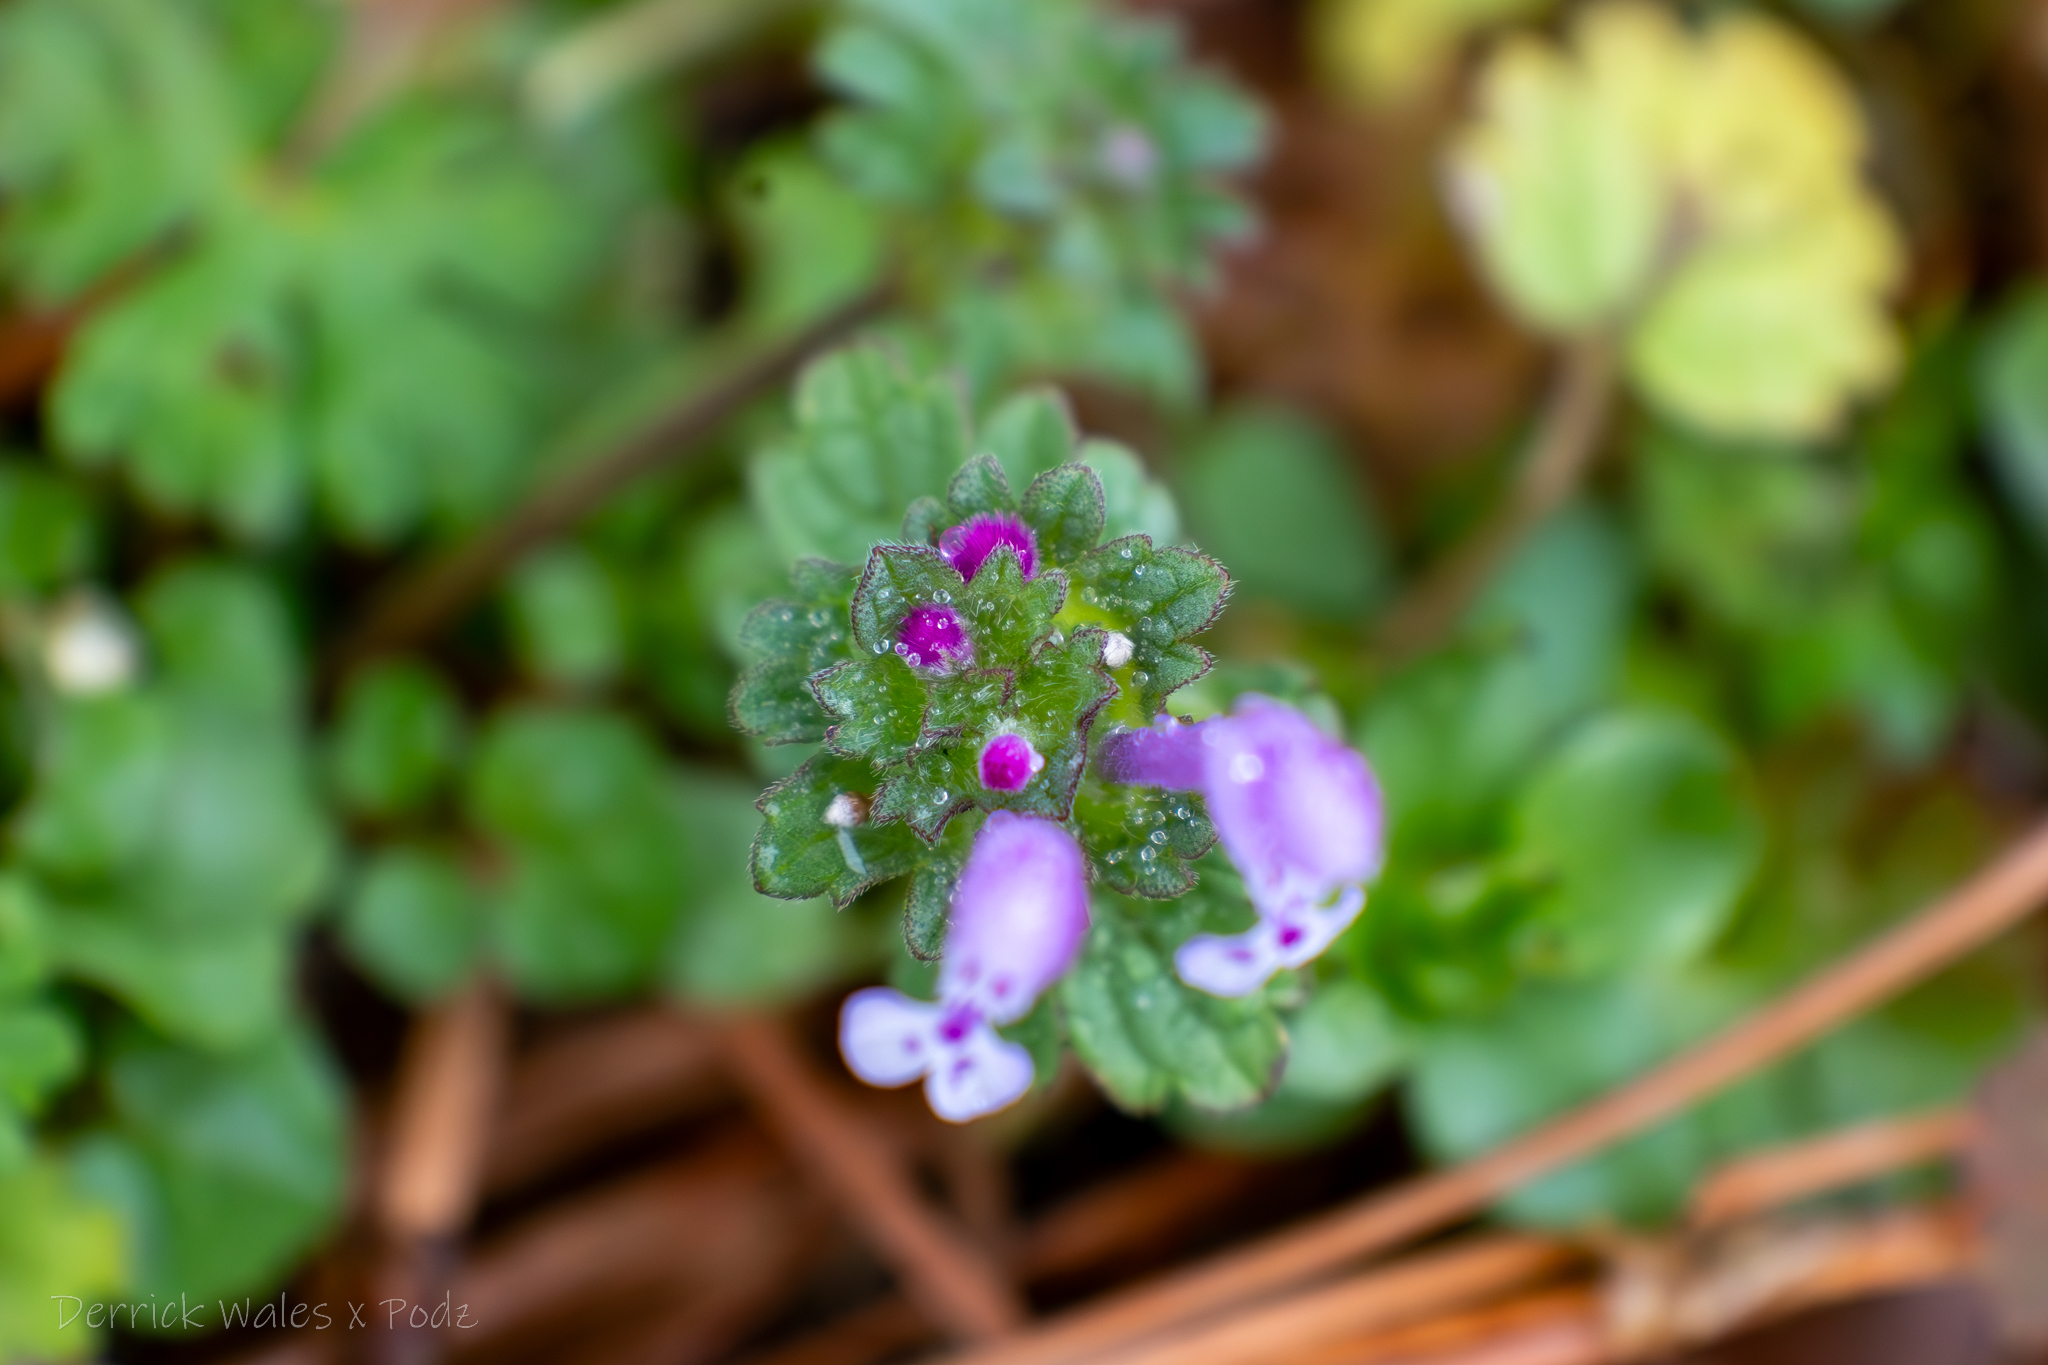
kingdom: Plantae
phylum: Tracheophyta
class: Magnoliopsida
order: Lamiales
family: Lamiaceae
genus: Lamium
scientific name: Lamium amplexicaule
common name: Henbit dead-nettle
